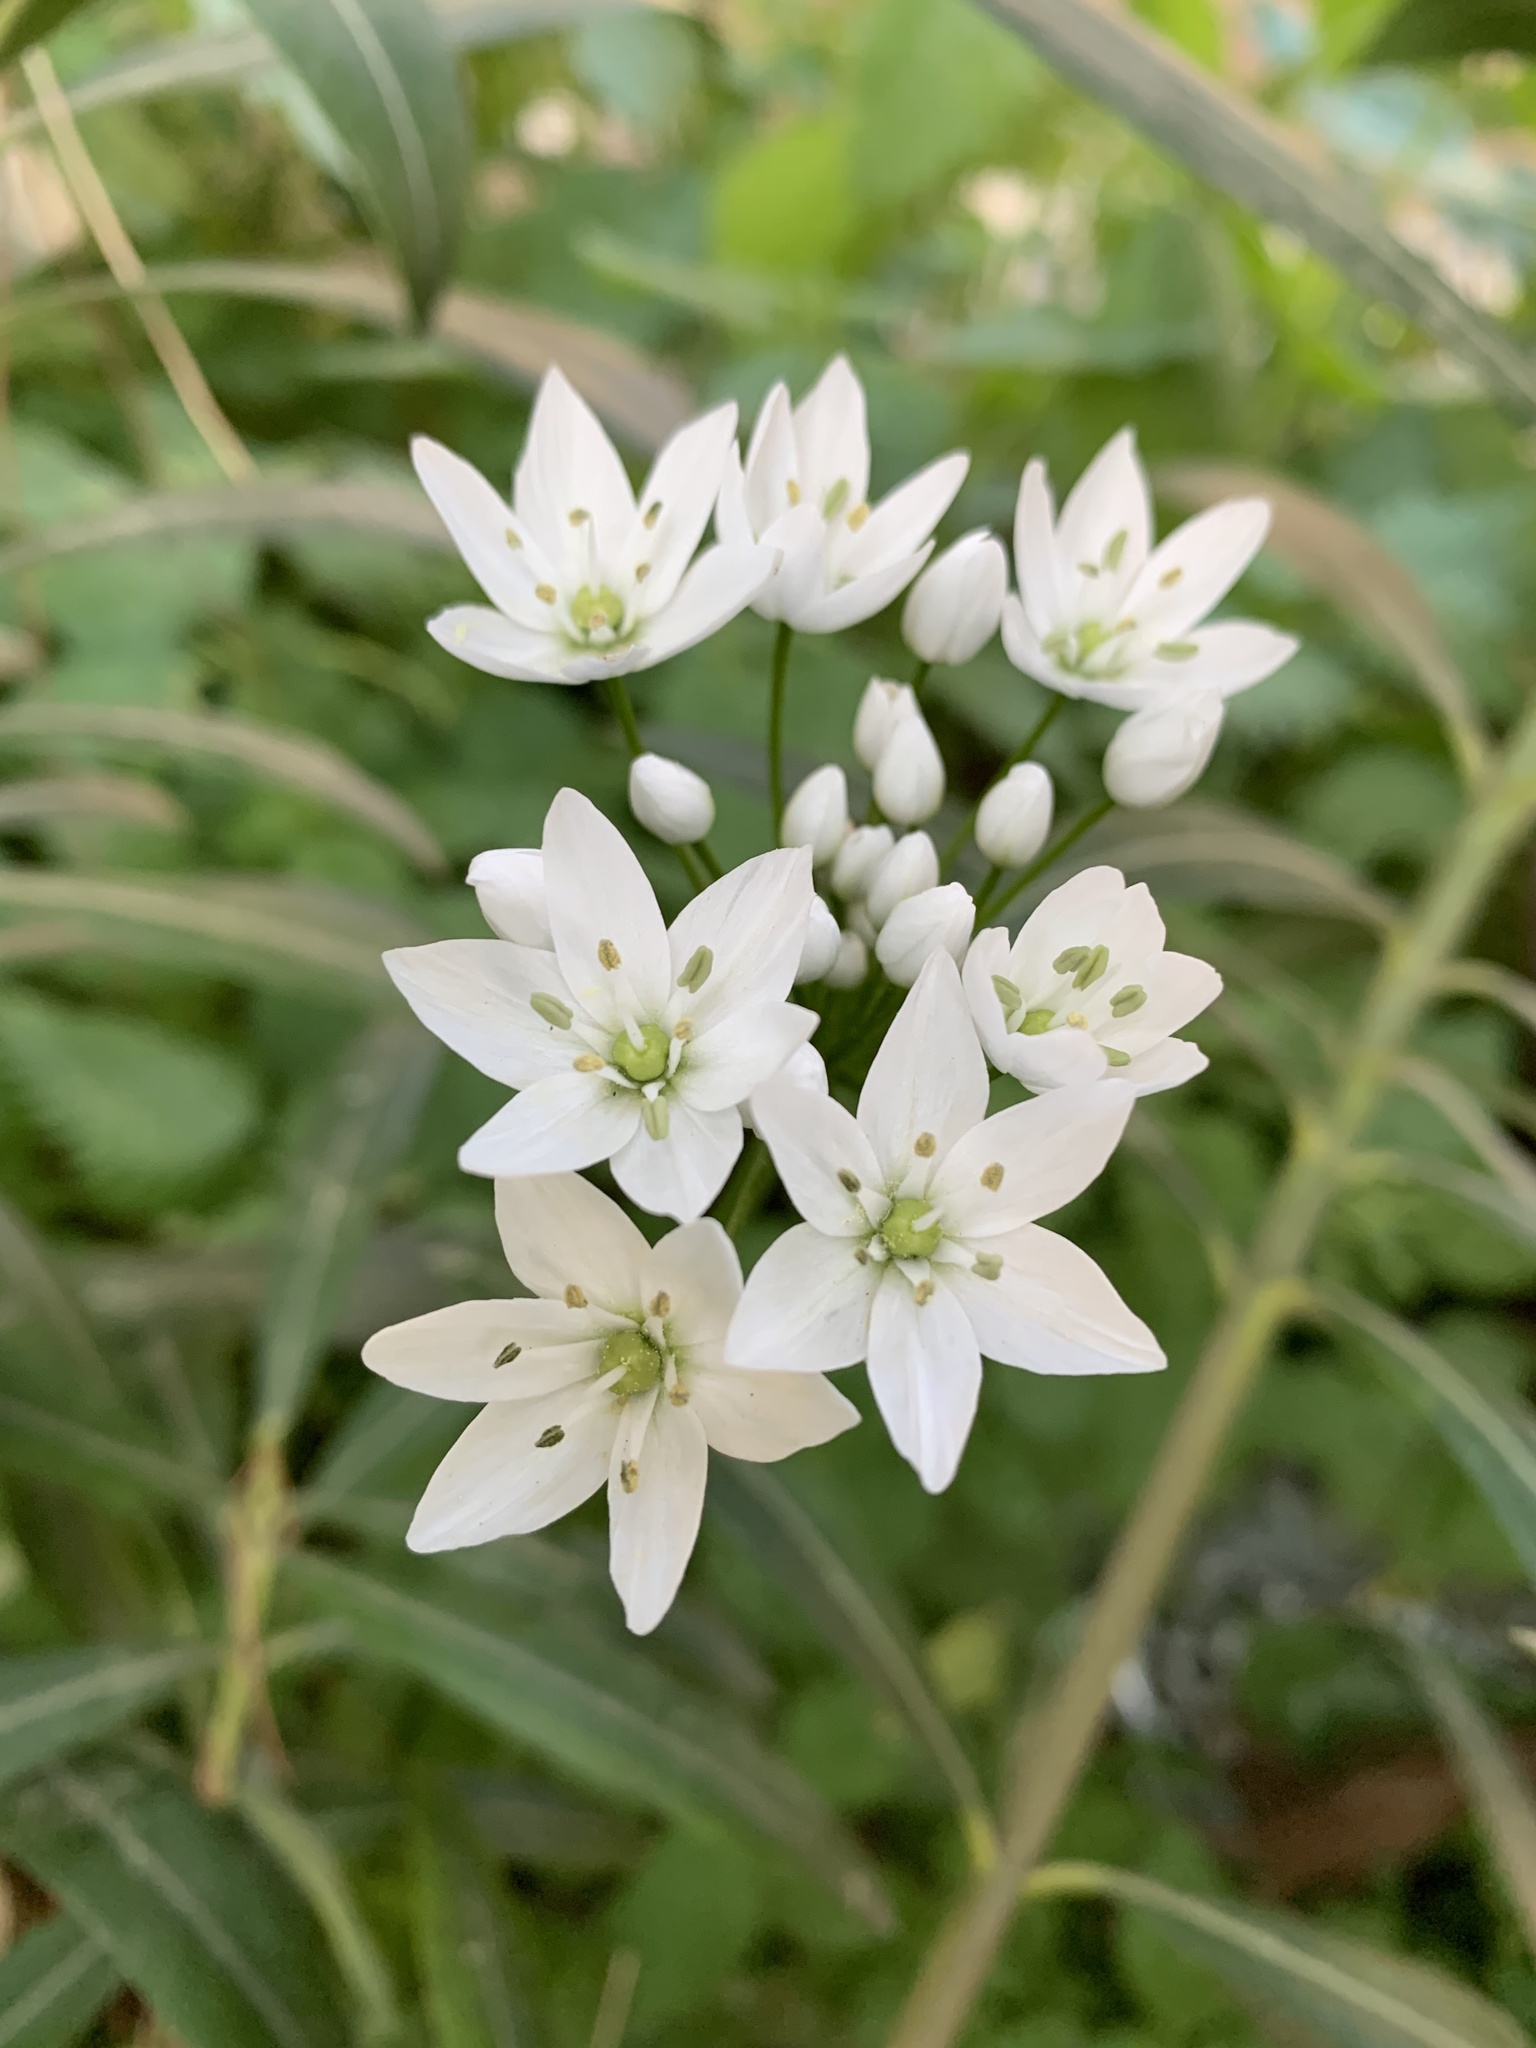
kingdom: Plantae
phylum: Tracheophyta
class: Liliopsida
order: Asparagales
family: Amaryllidaceae
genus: Allium
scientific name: Allium neapolitanum
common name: Neapolitan garlic
